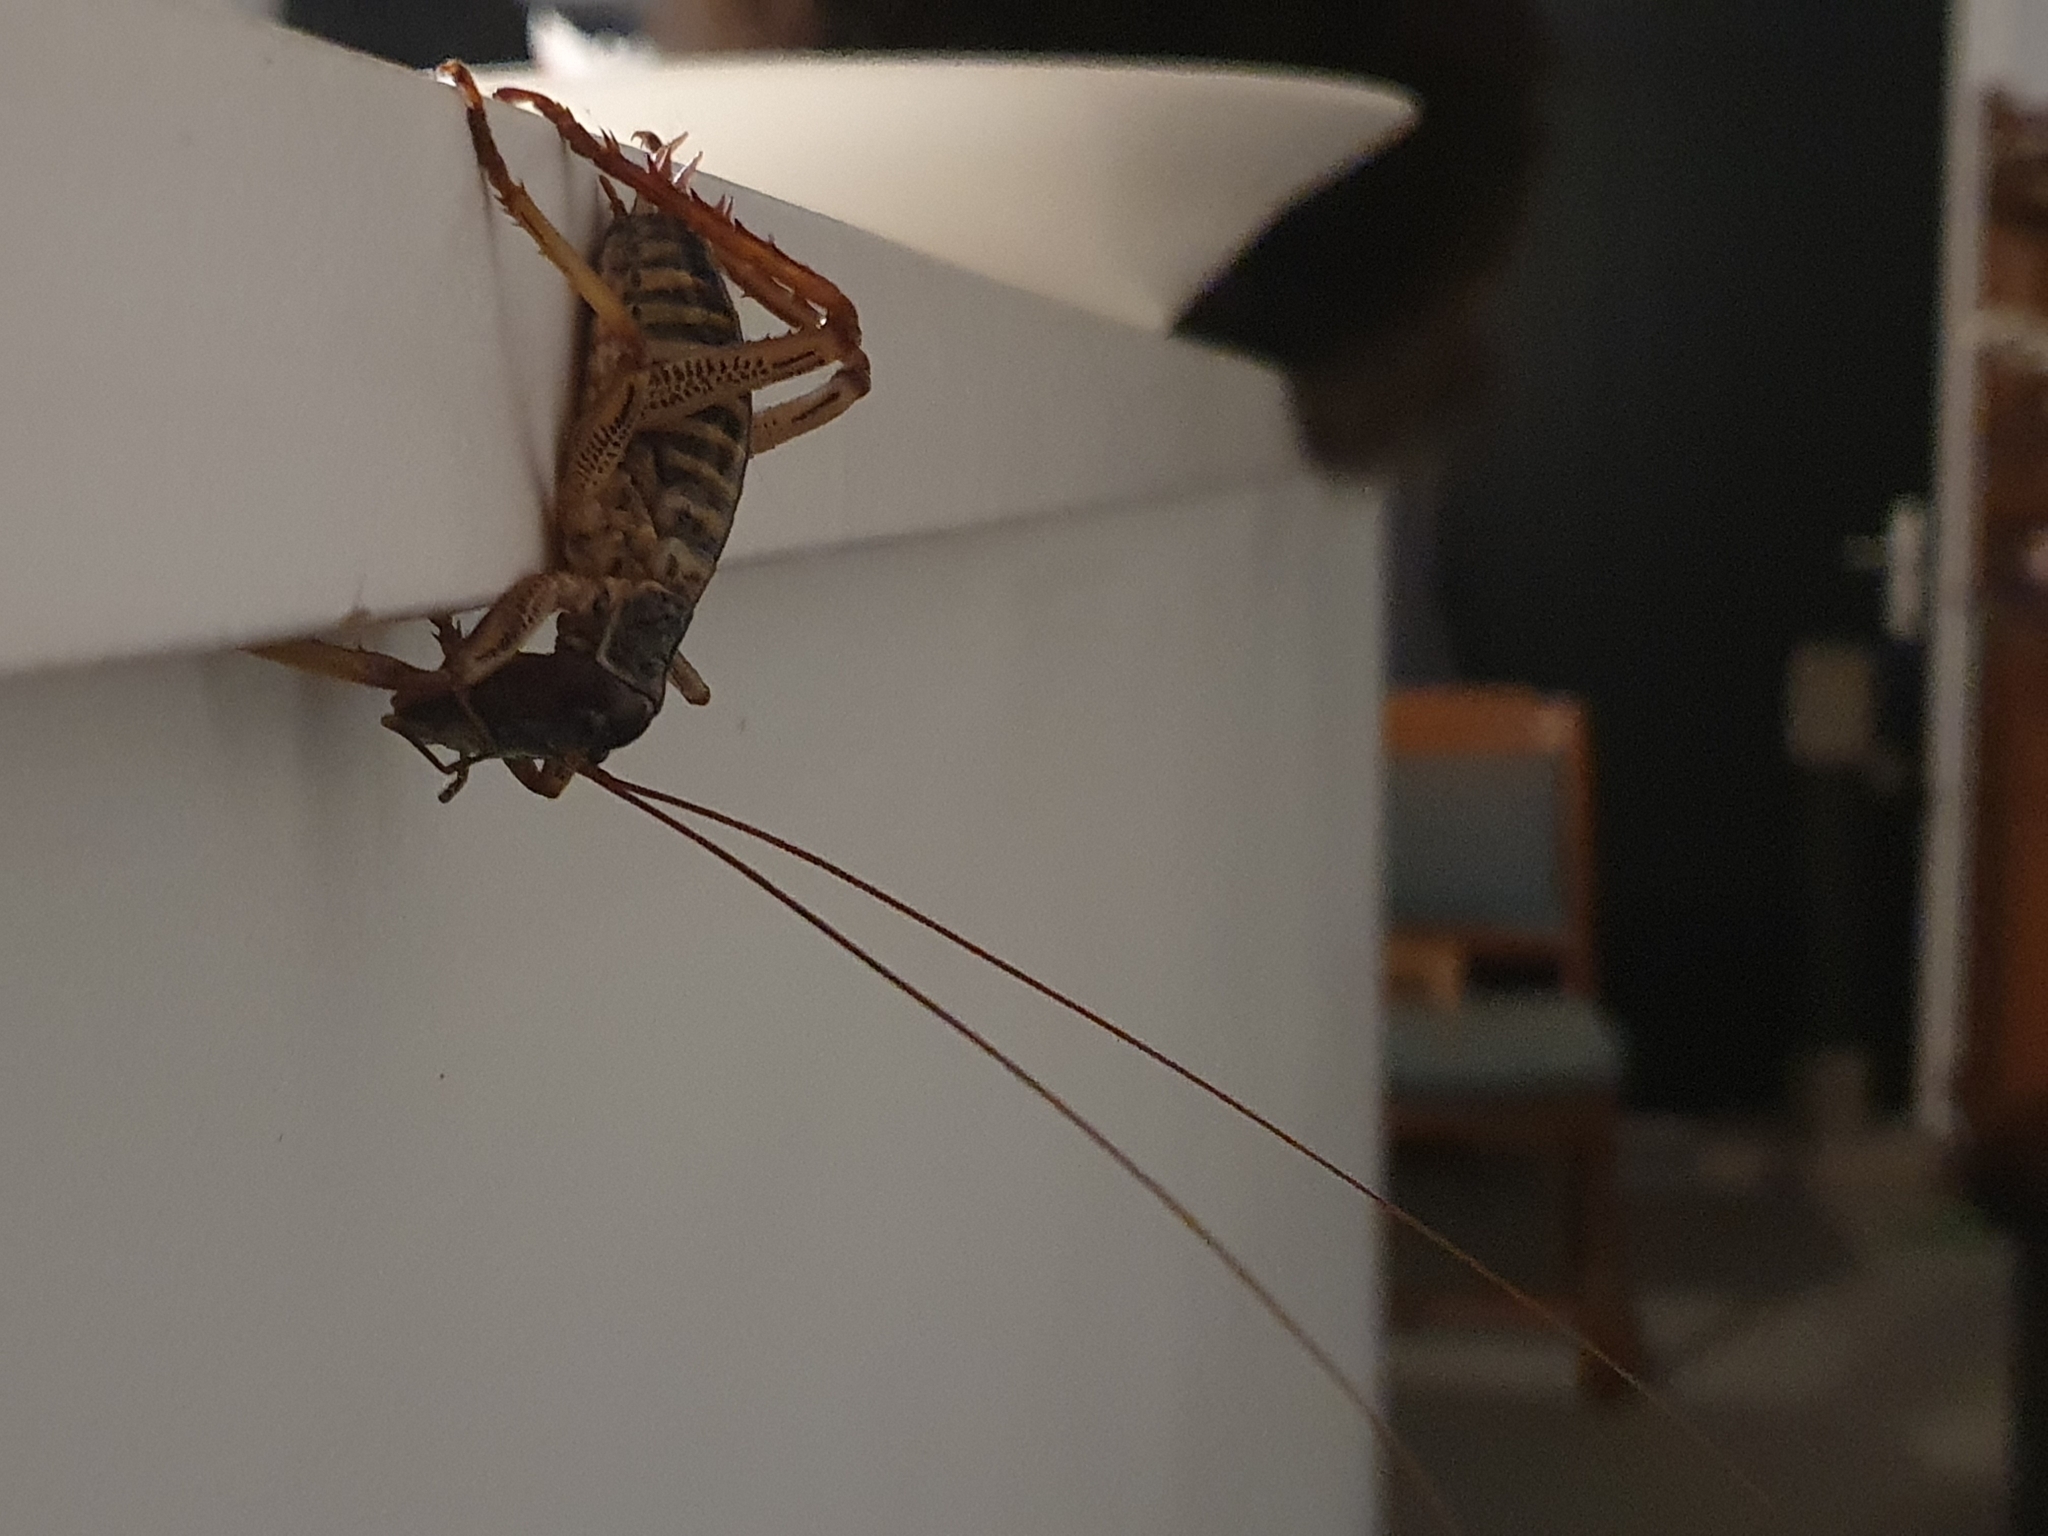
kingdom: Animalia
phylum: Arthropoda
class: Insecta
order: Orthoptera
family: Anostostomatidae
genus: Hemideina
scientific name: Hemideina crassidens
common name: Wellington tree weta
